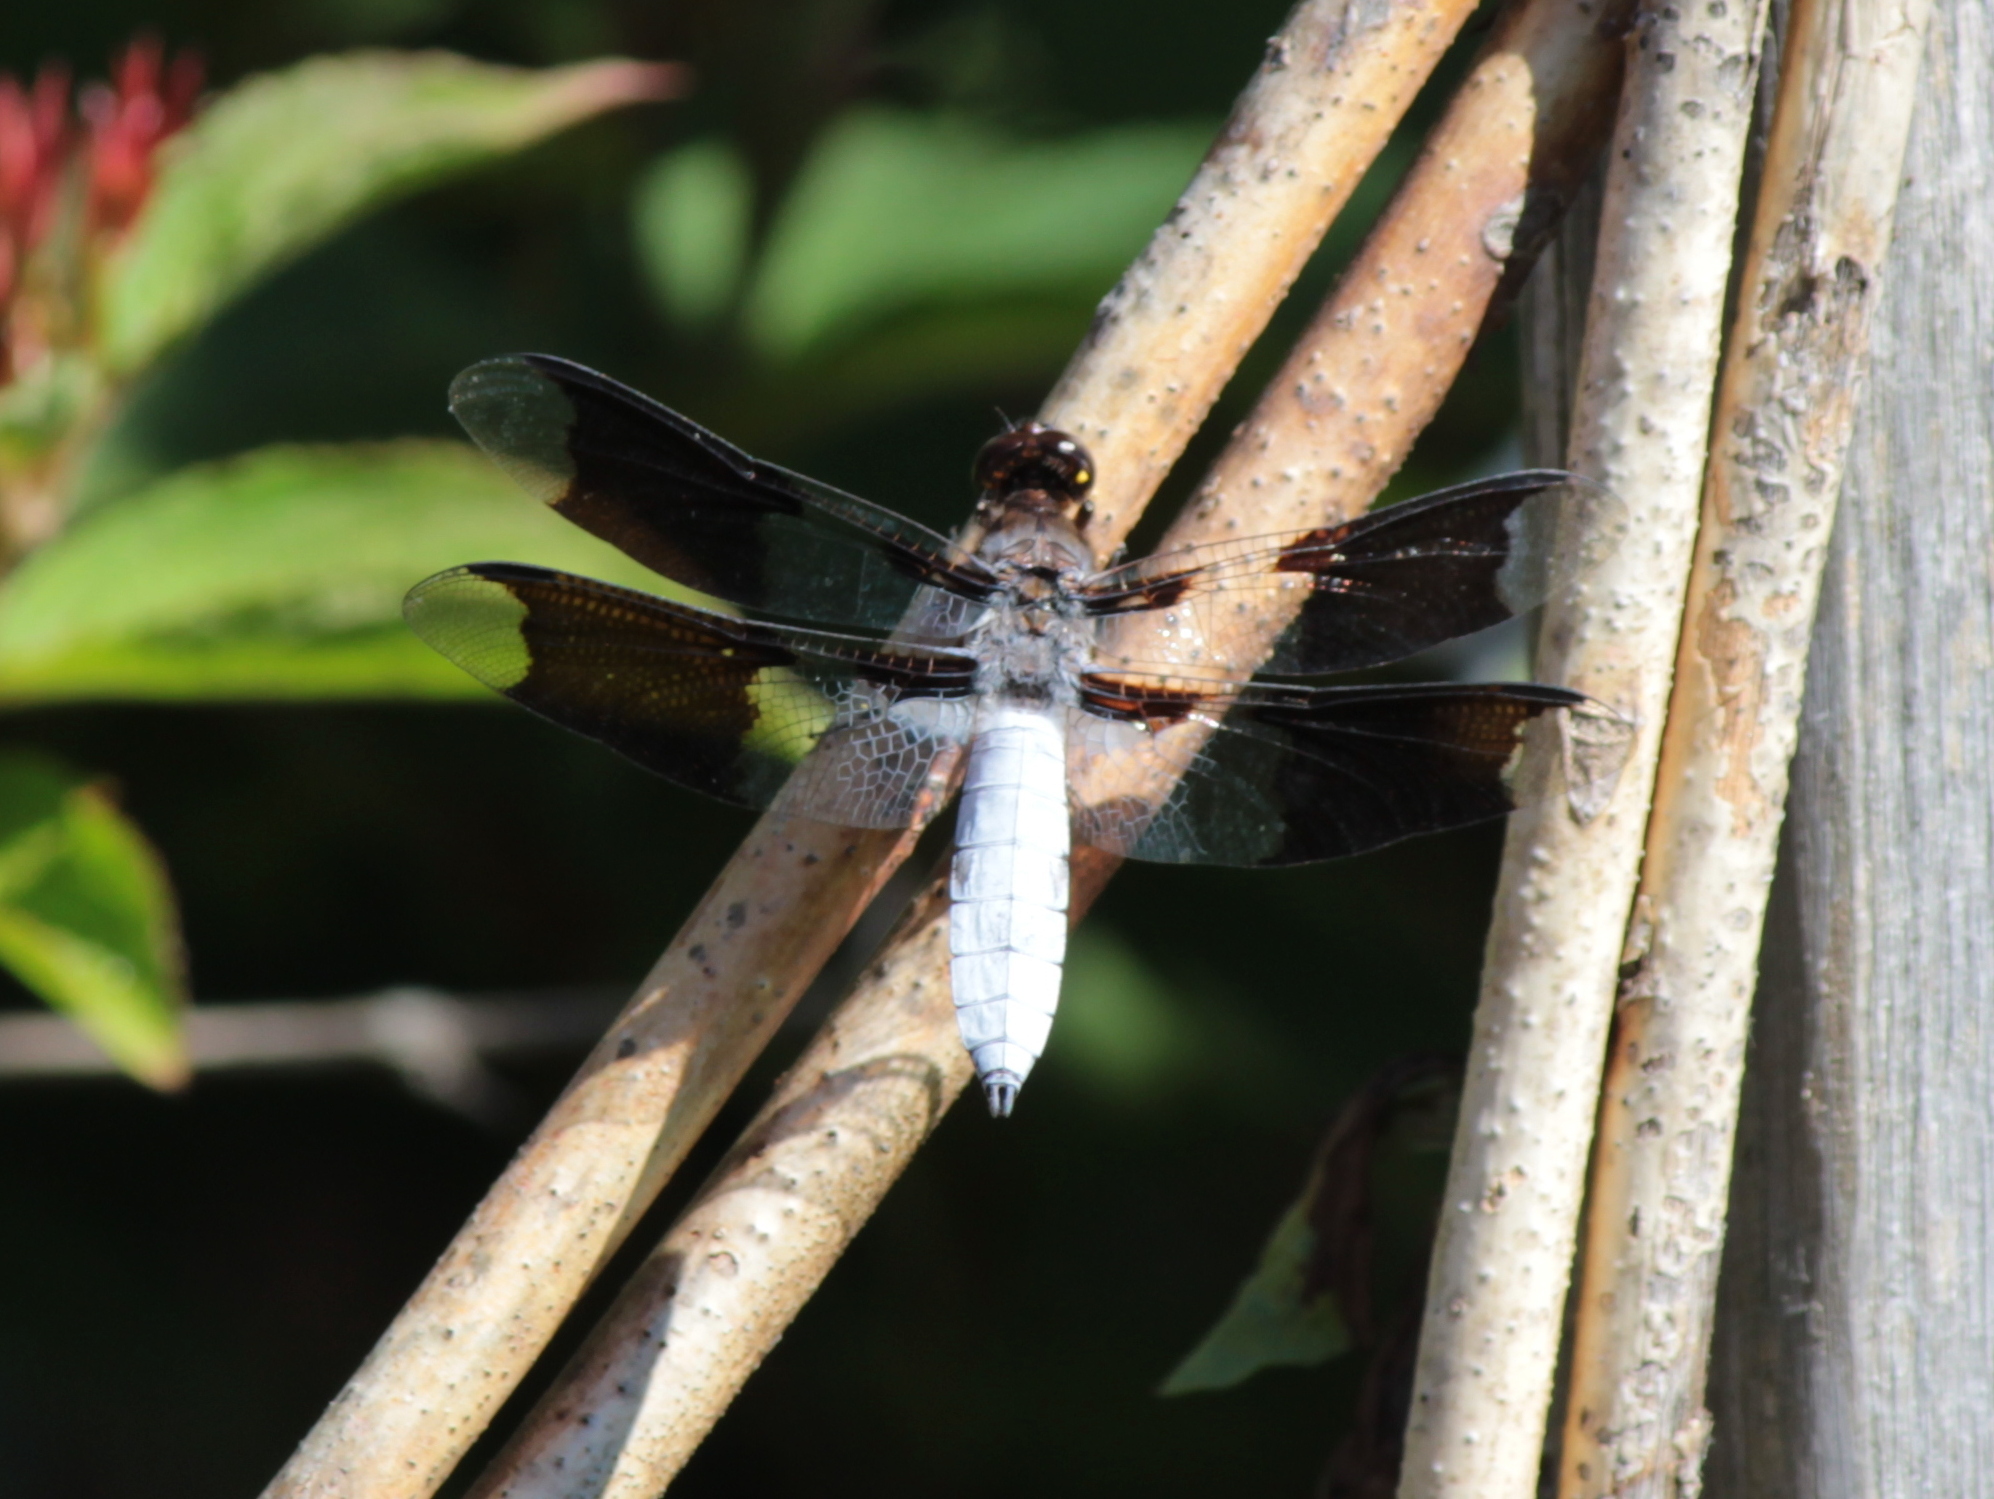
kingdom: Animalia
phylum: Arthropoda
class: Insecta
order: Odonata
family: Libellulidae
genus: Plathemis
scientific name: Plathemis lydia
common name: Common whitetail
